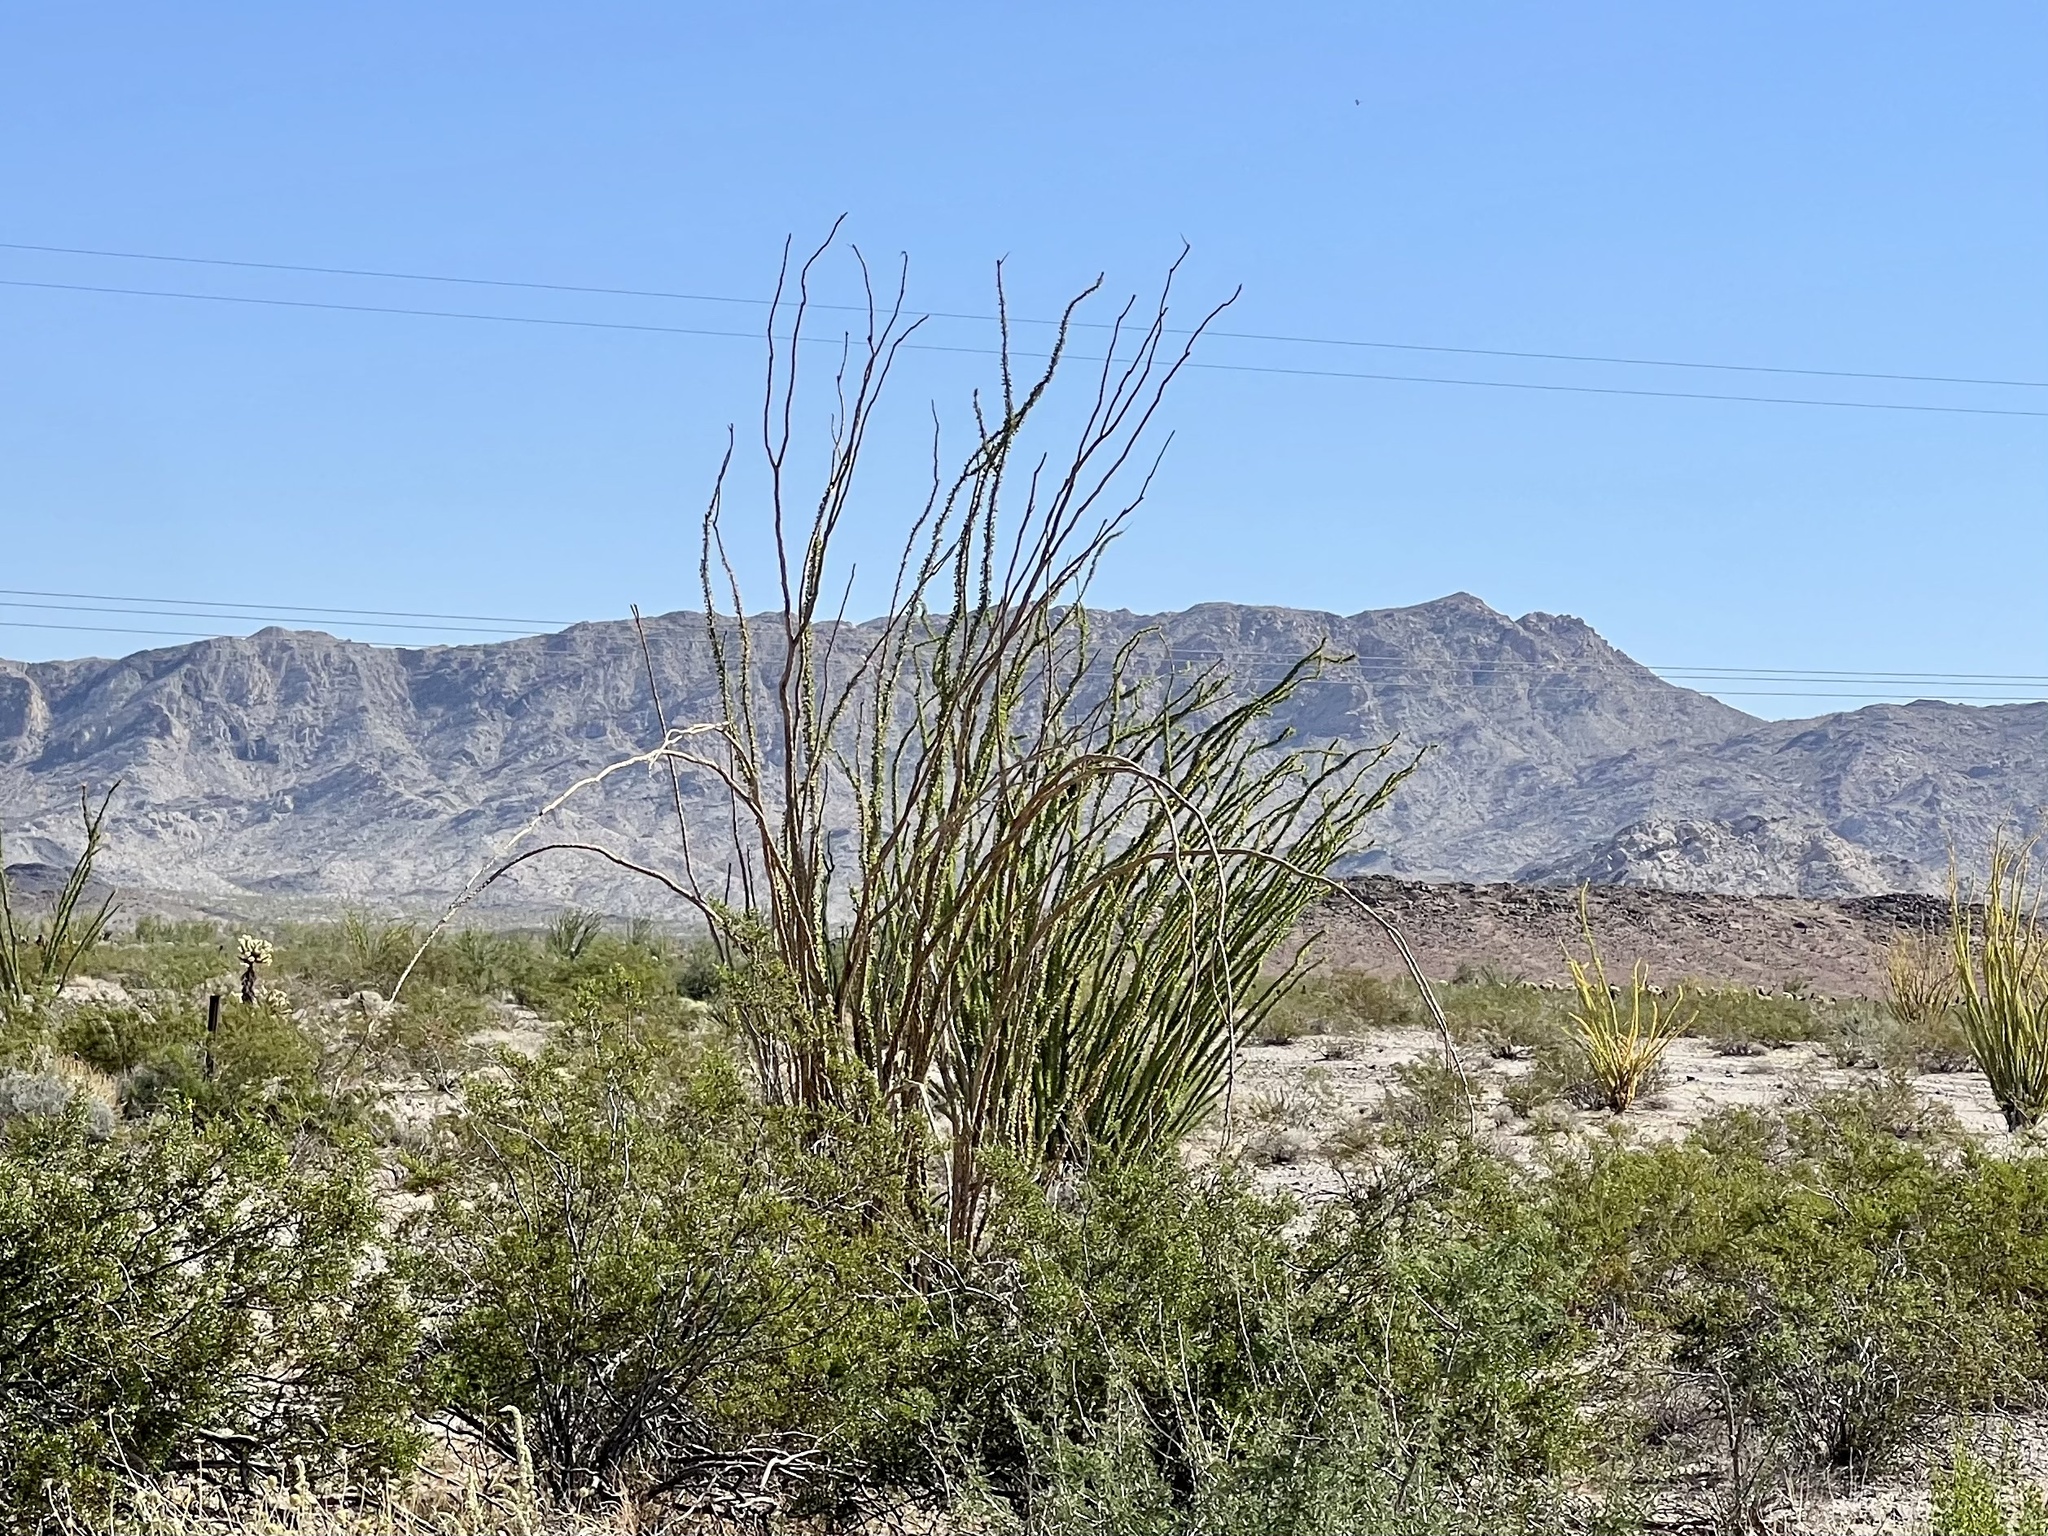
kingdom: Plantae
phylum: Tracheophyta
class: Magnoliopsida
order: Ericales
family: Fouquieriaceae
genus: Fouquieria
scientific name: Fouquieria splendens
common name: Vine-cactus
